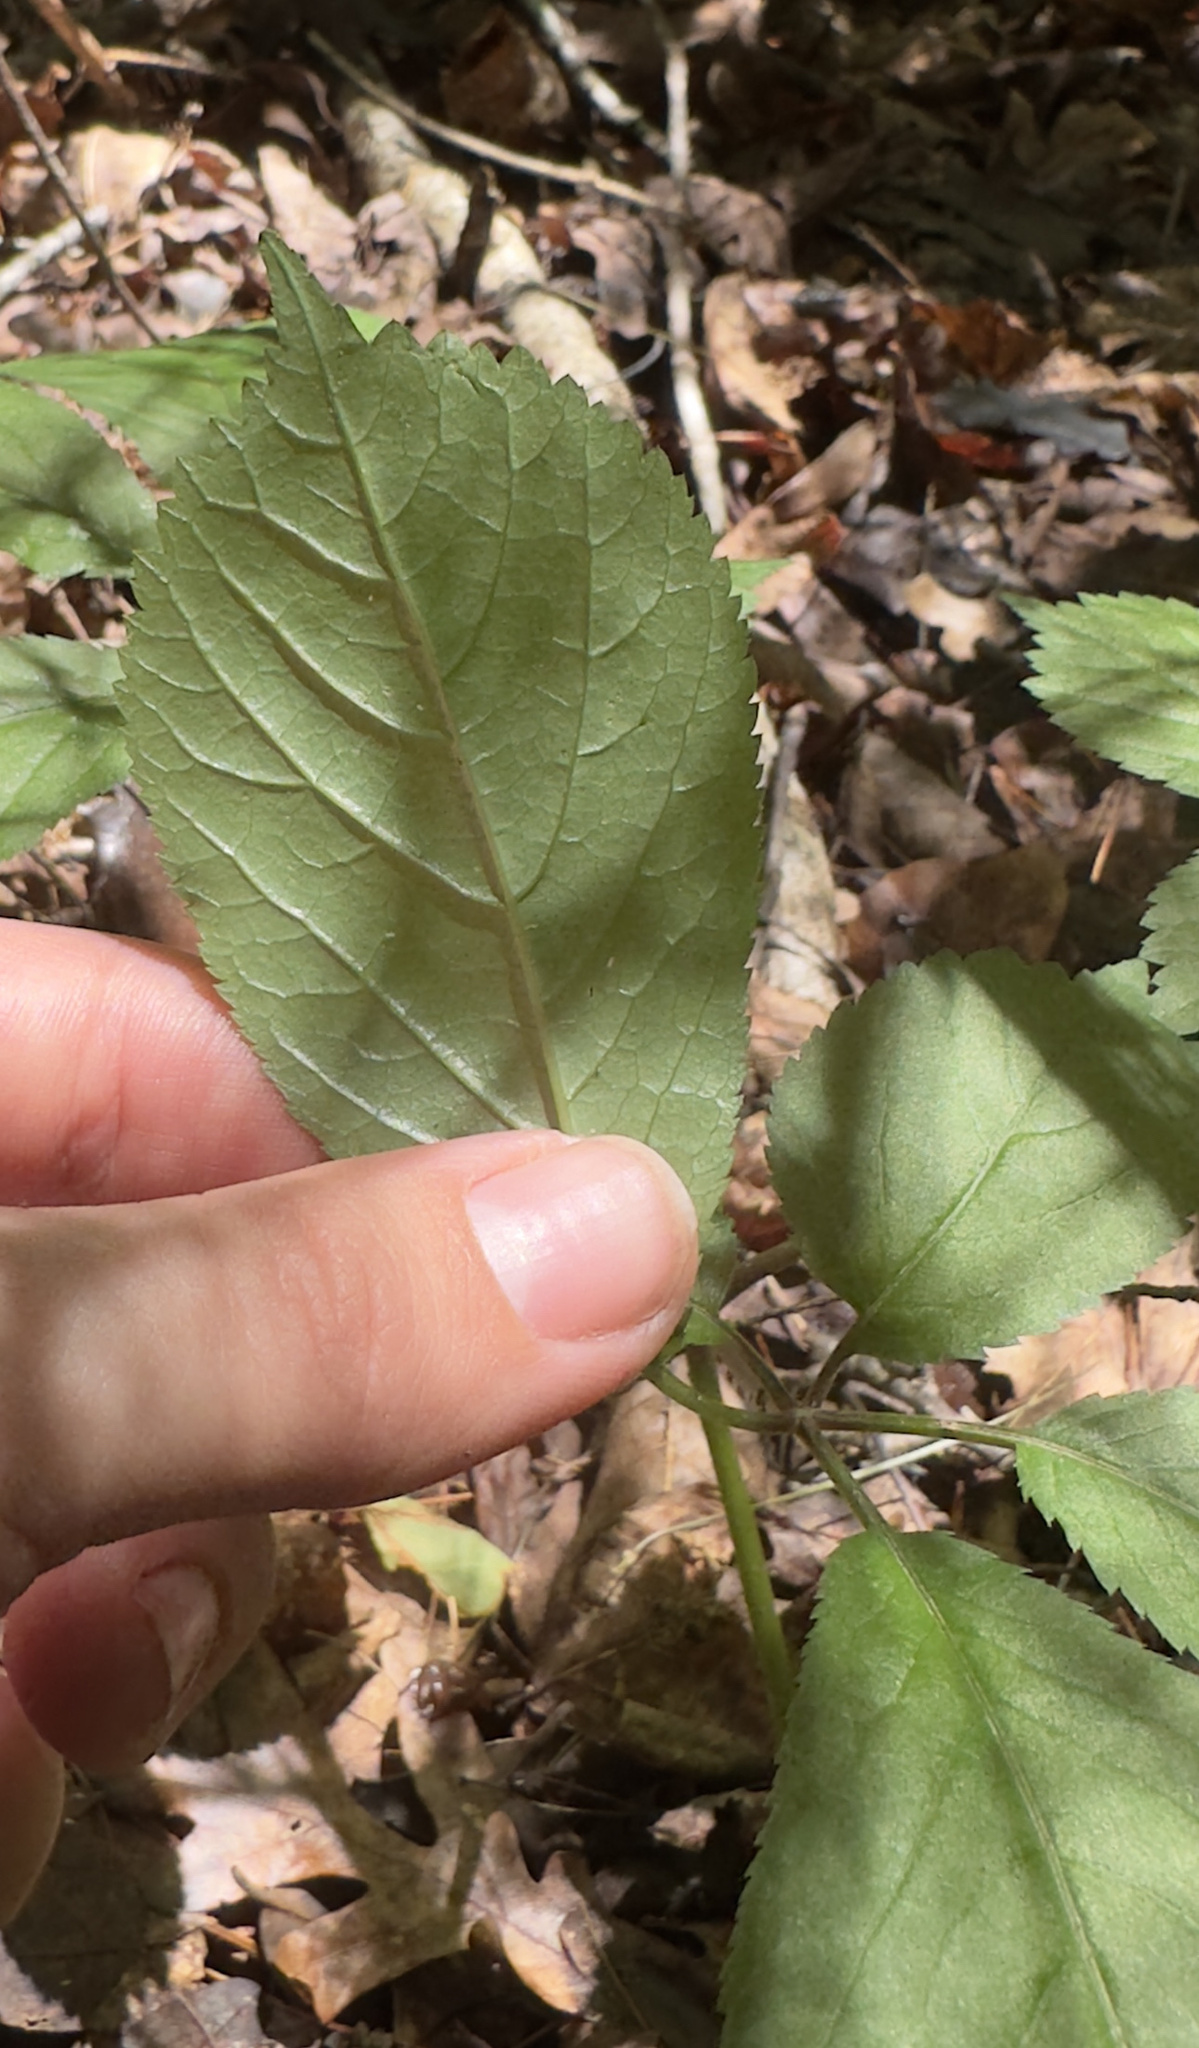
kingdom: Plantae
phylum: Tracheophyta
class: Magnoliopsida
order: Apiales
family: Araliaceae
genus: Panax
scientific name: Panax quinquefolius
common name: American ginseng
